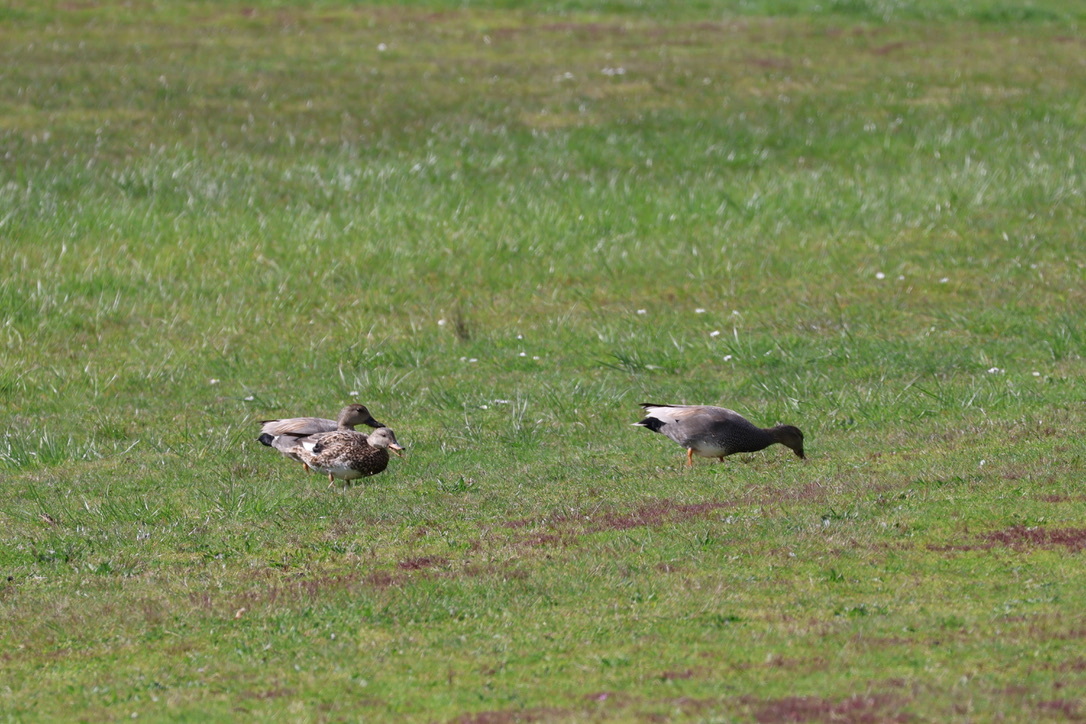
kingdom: Animalia
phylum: Chordata
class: Aves
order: Anseriformes
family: Anatidae
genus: Mareca
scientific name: Mareca strepera
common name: Gadwall
